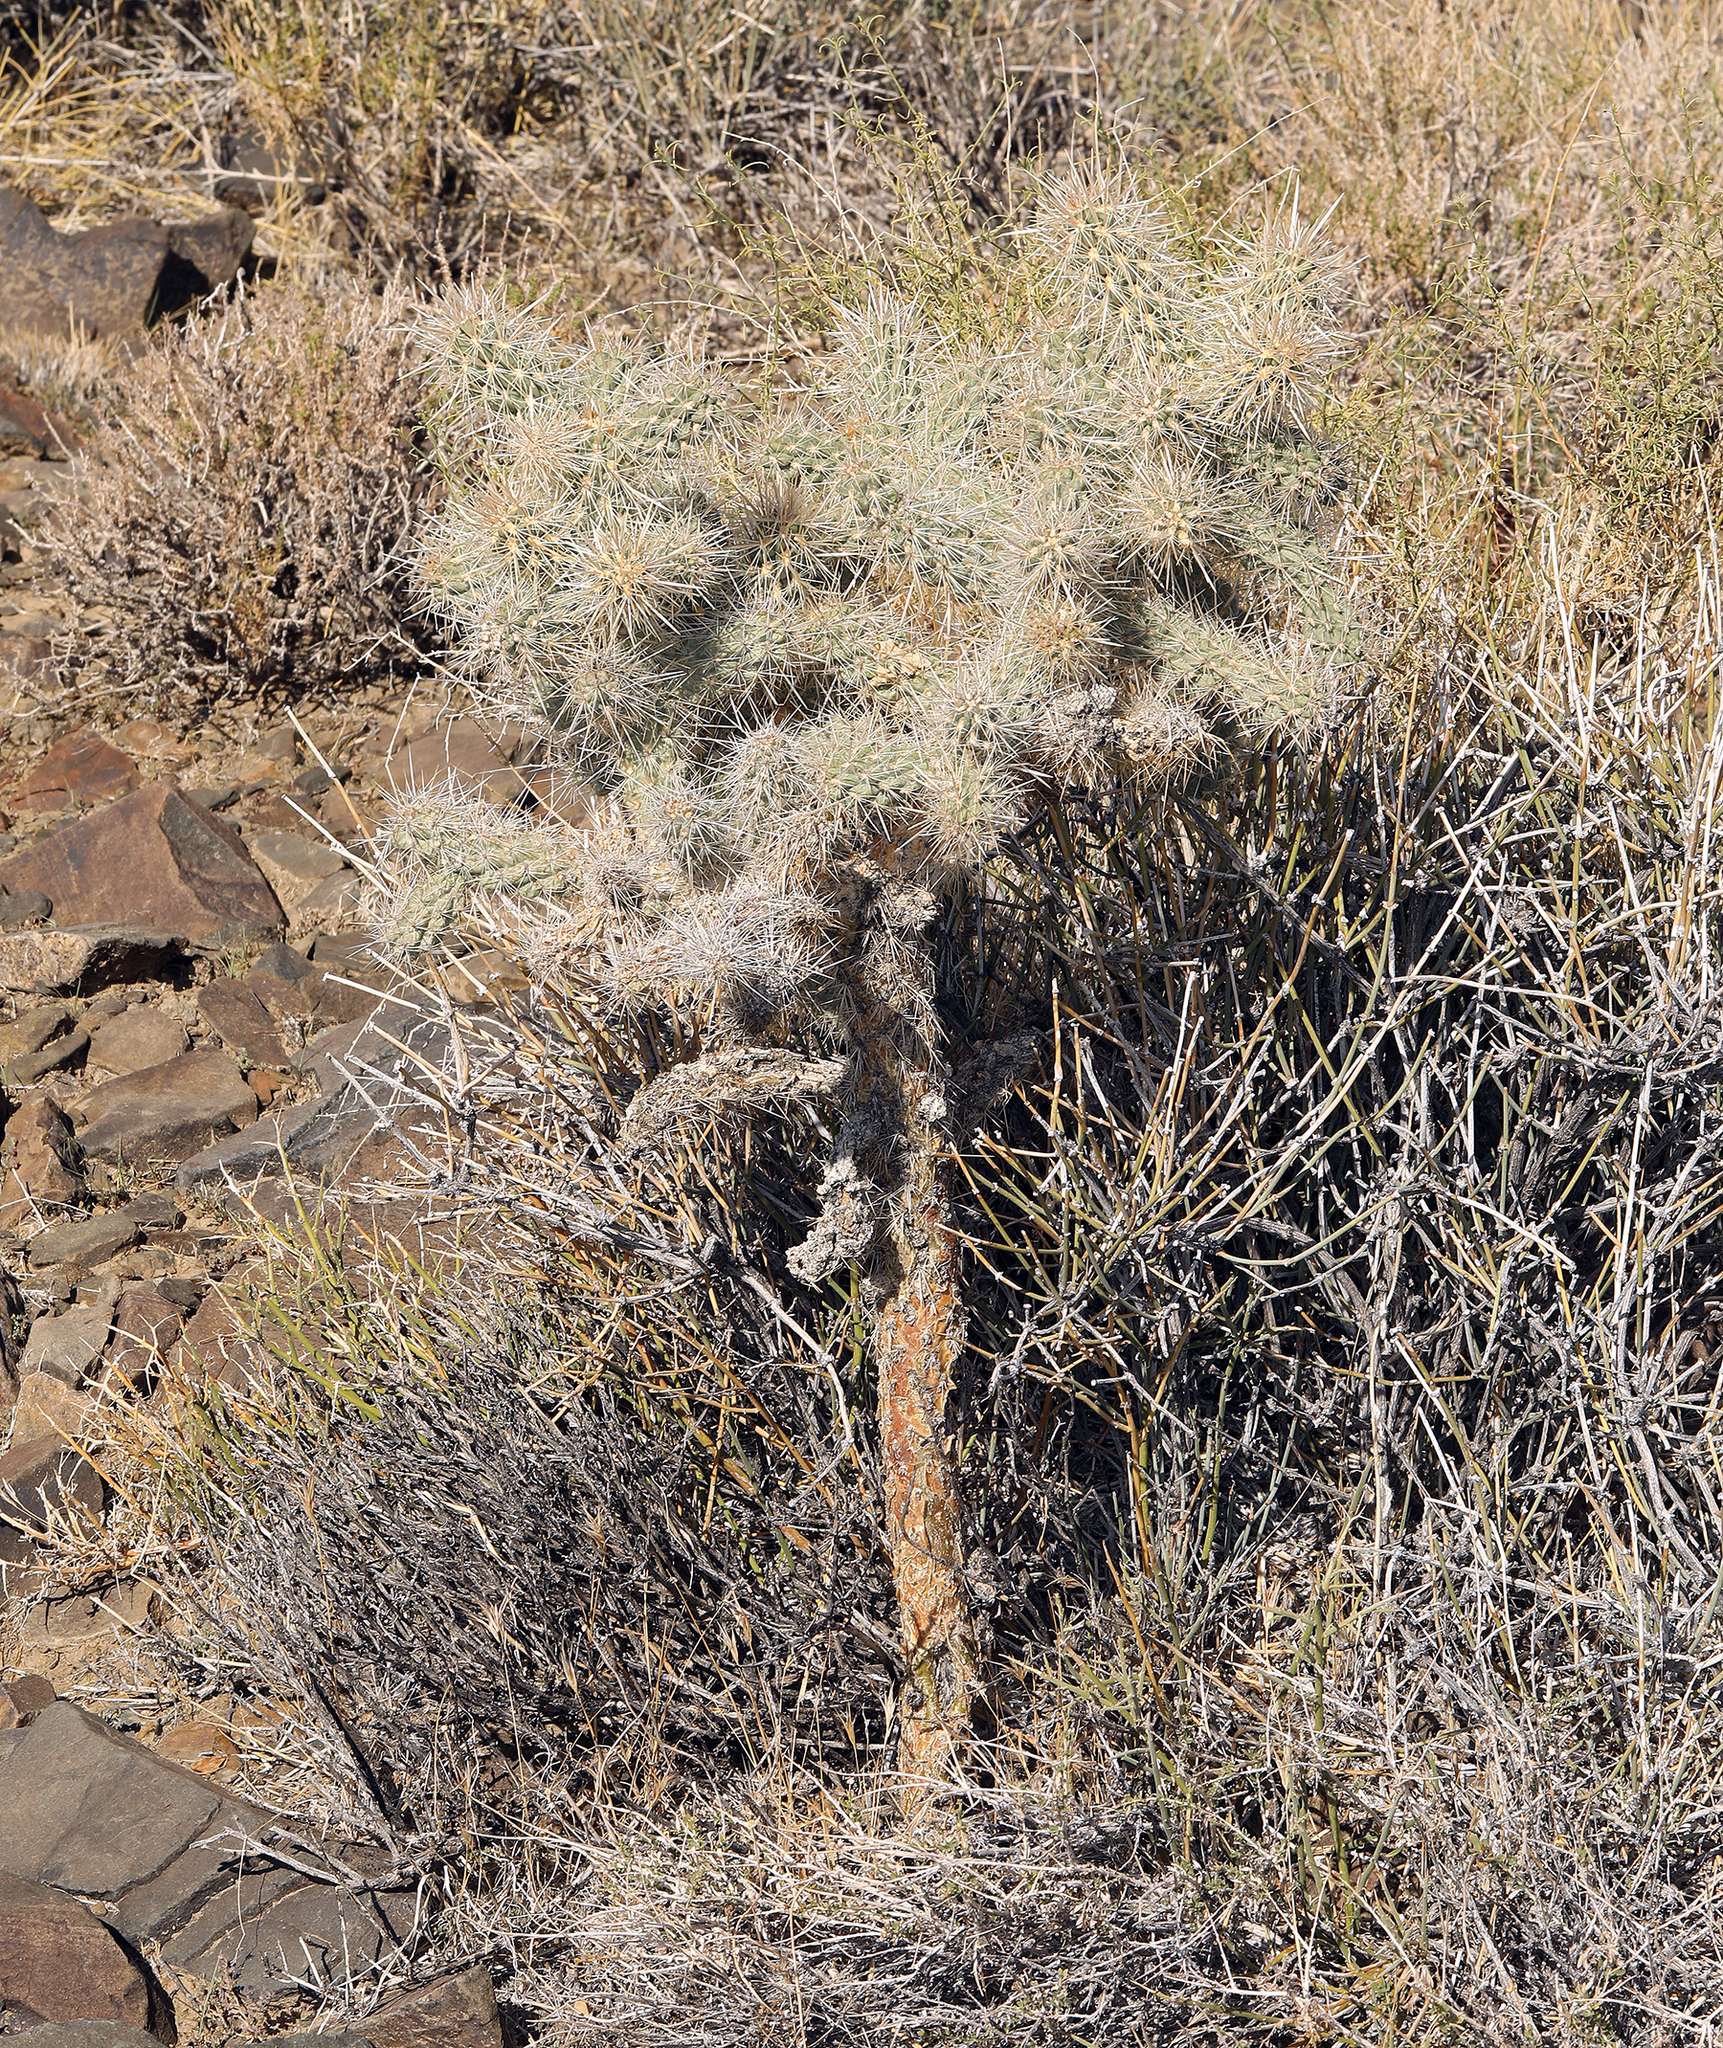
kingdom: Plantae
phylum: Tracheophyta
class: Magnoliopsida
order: Caryophyllales
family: Cactaceae
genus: Cylindropuntia
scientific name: Cylindropuntia echinocarpa
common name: Ground cholla
